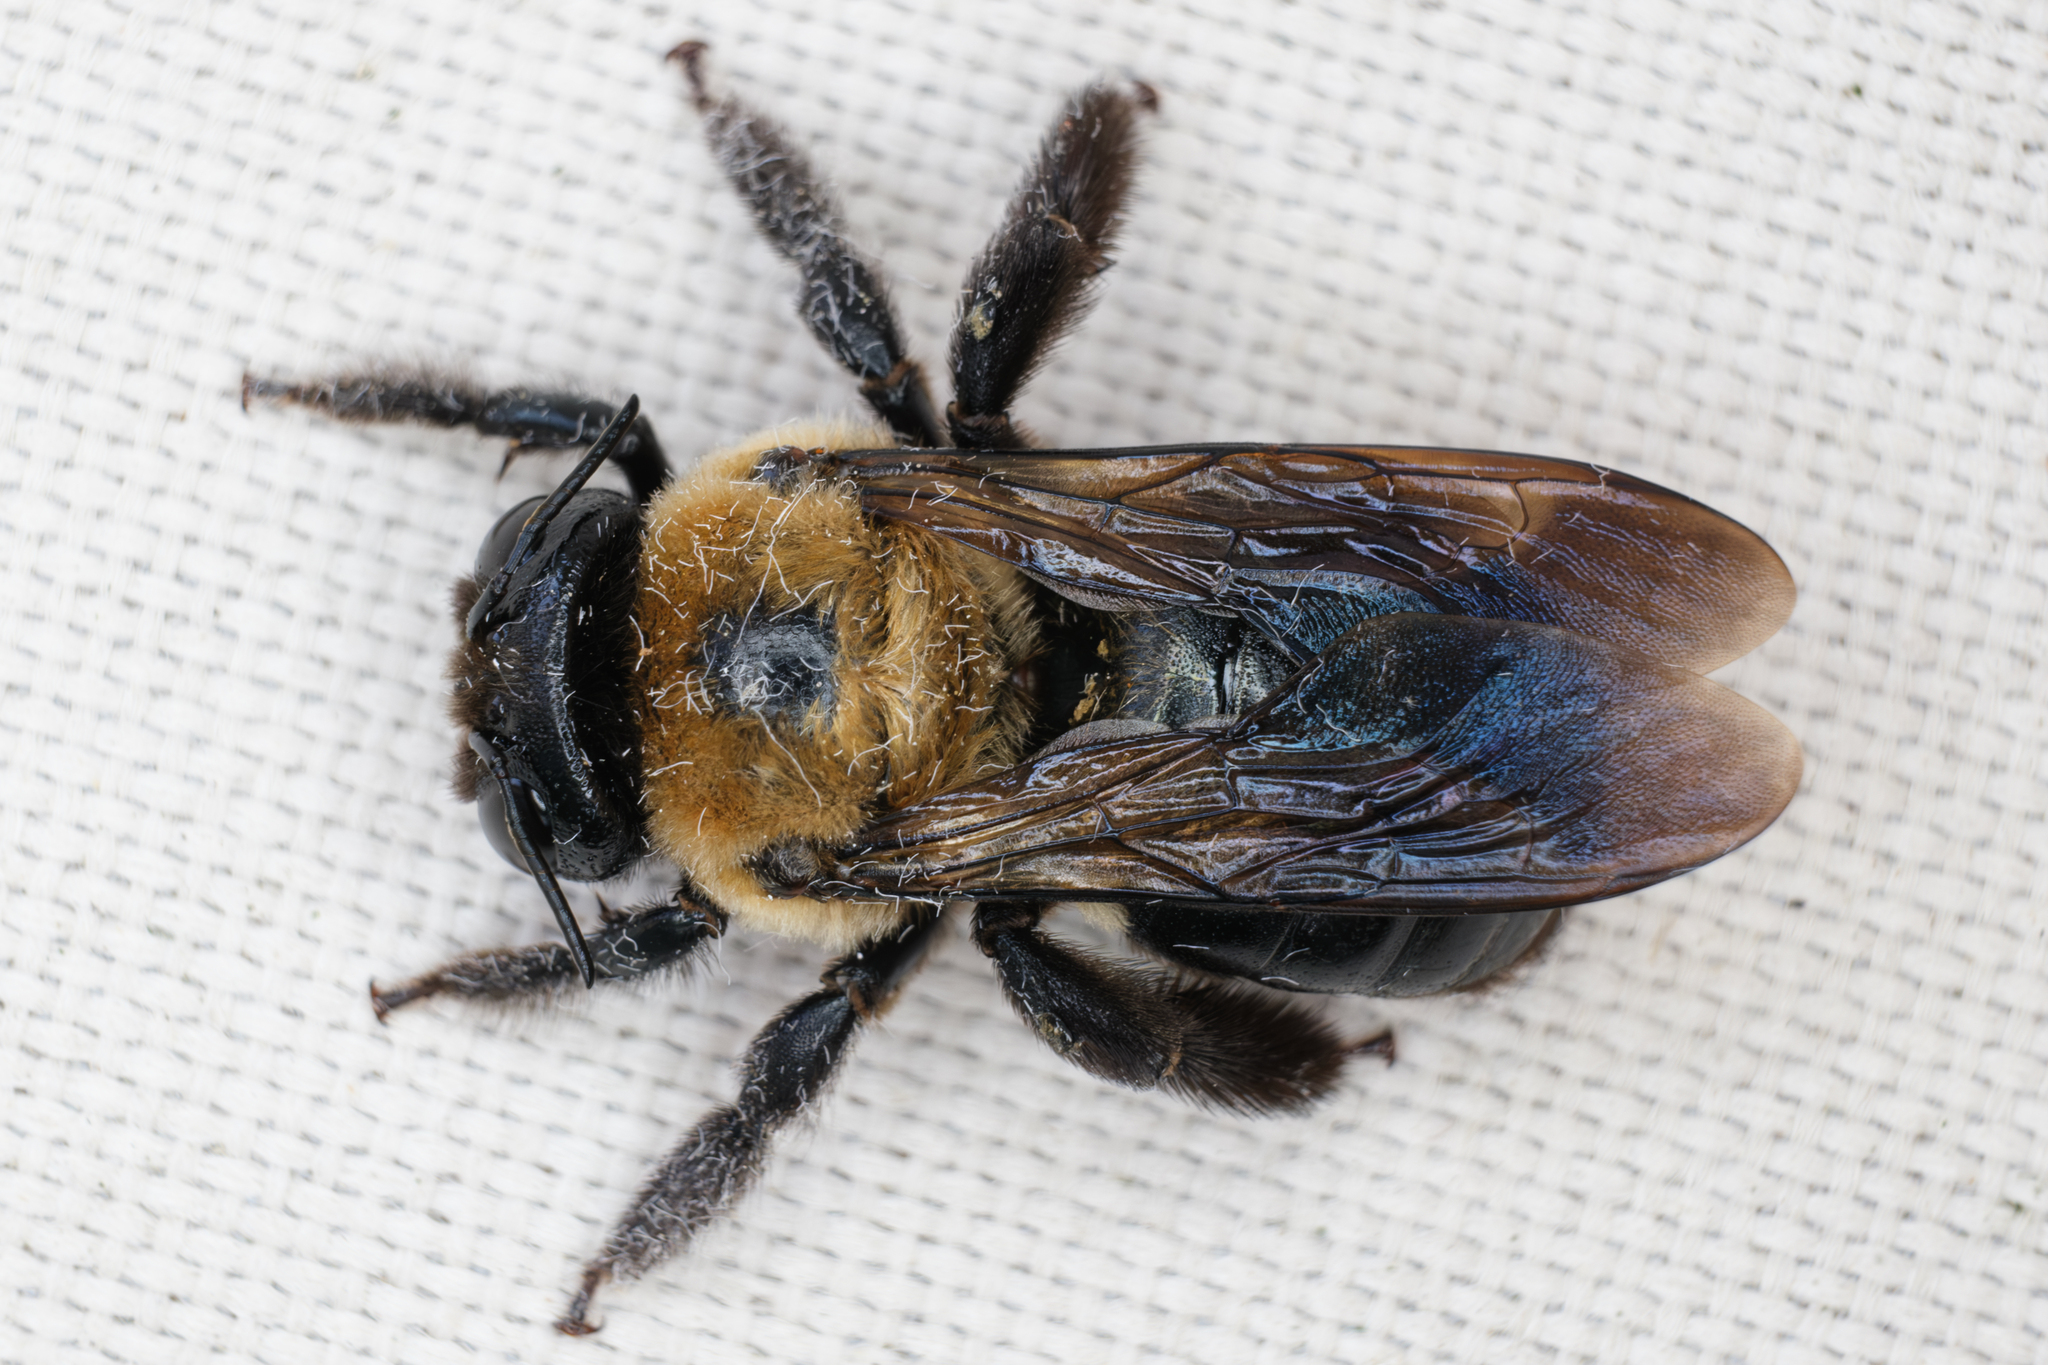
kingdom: Animalia
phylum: Arthropoda
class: Insecta
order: Hymenoptera
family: Apidae
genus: Xylocopa
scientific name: Xylocopa virginica
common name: Carpenter bee
